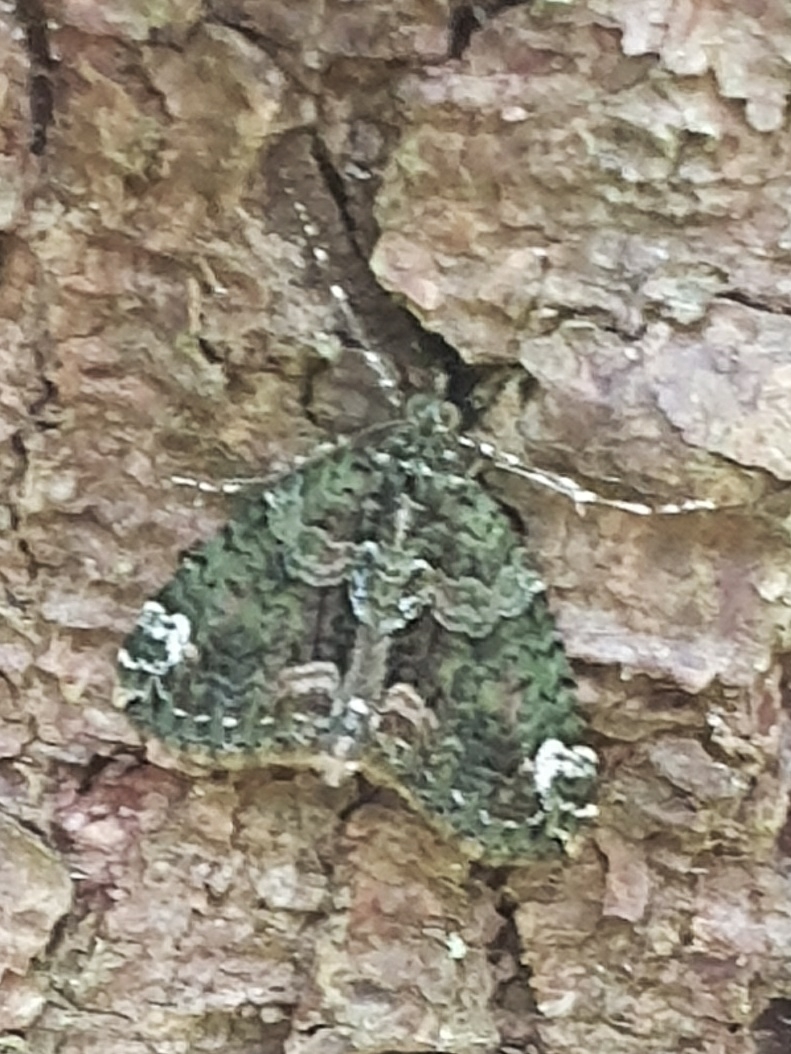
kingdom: Animalia
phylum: Arthropoda
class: Insecta
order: Lepidoptera
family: Geometridae
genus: Chloroclysta
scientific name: Chloroclysta siterata
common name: Red-green carpet
